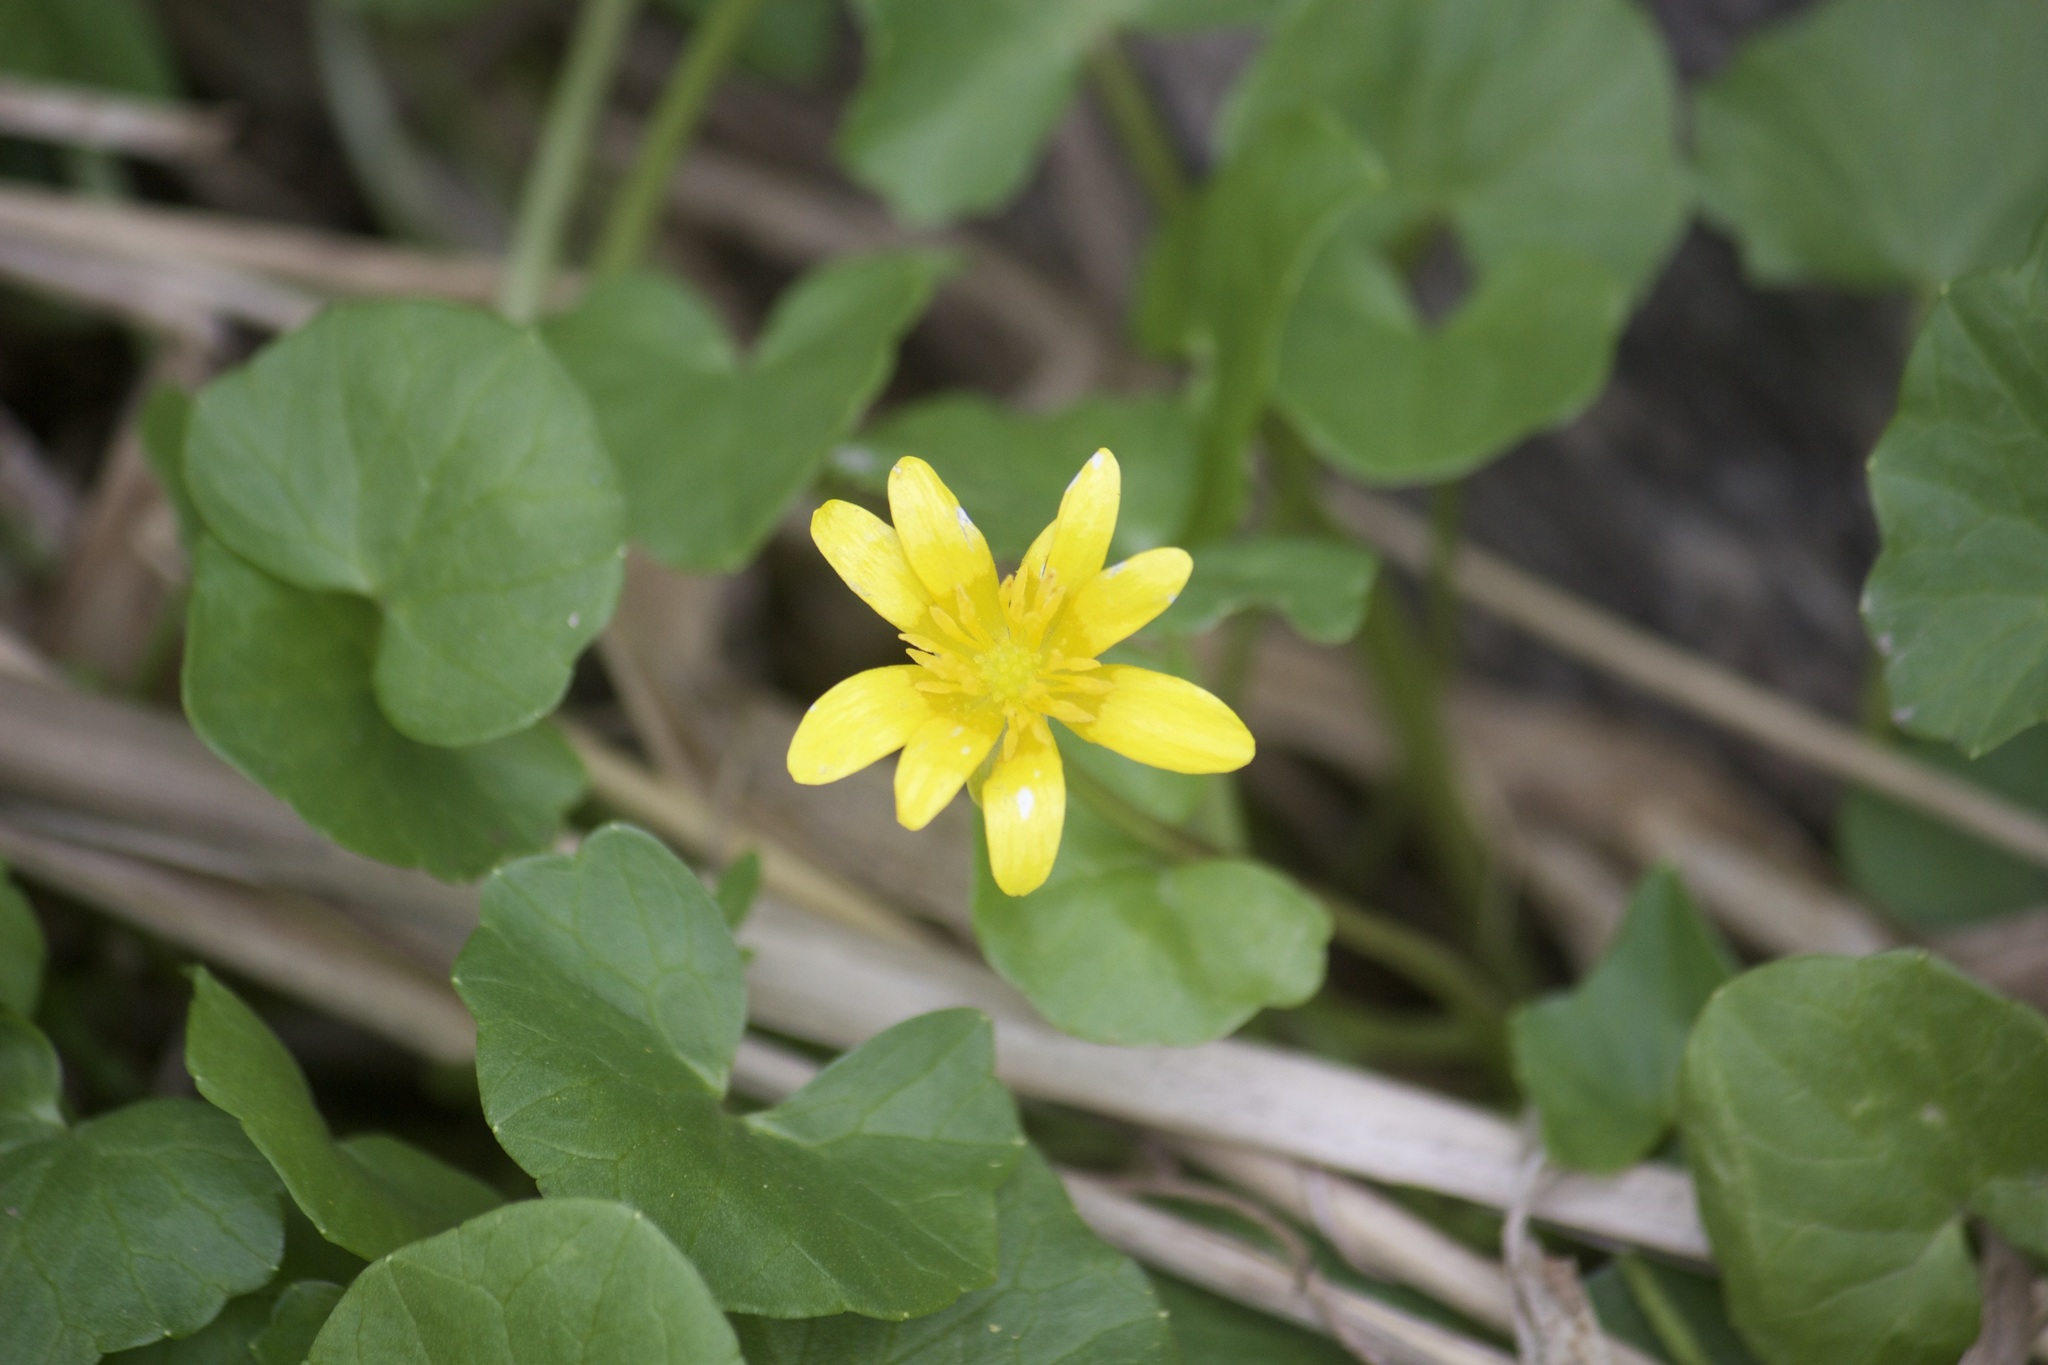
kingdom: Plantae
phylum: Tracheophyta
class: Magnoliopsida
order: Ranunculales
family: Ranunculaceae
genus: Ficaria
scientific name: Ficaria verna
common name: Lesser celandine
